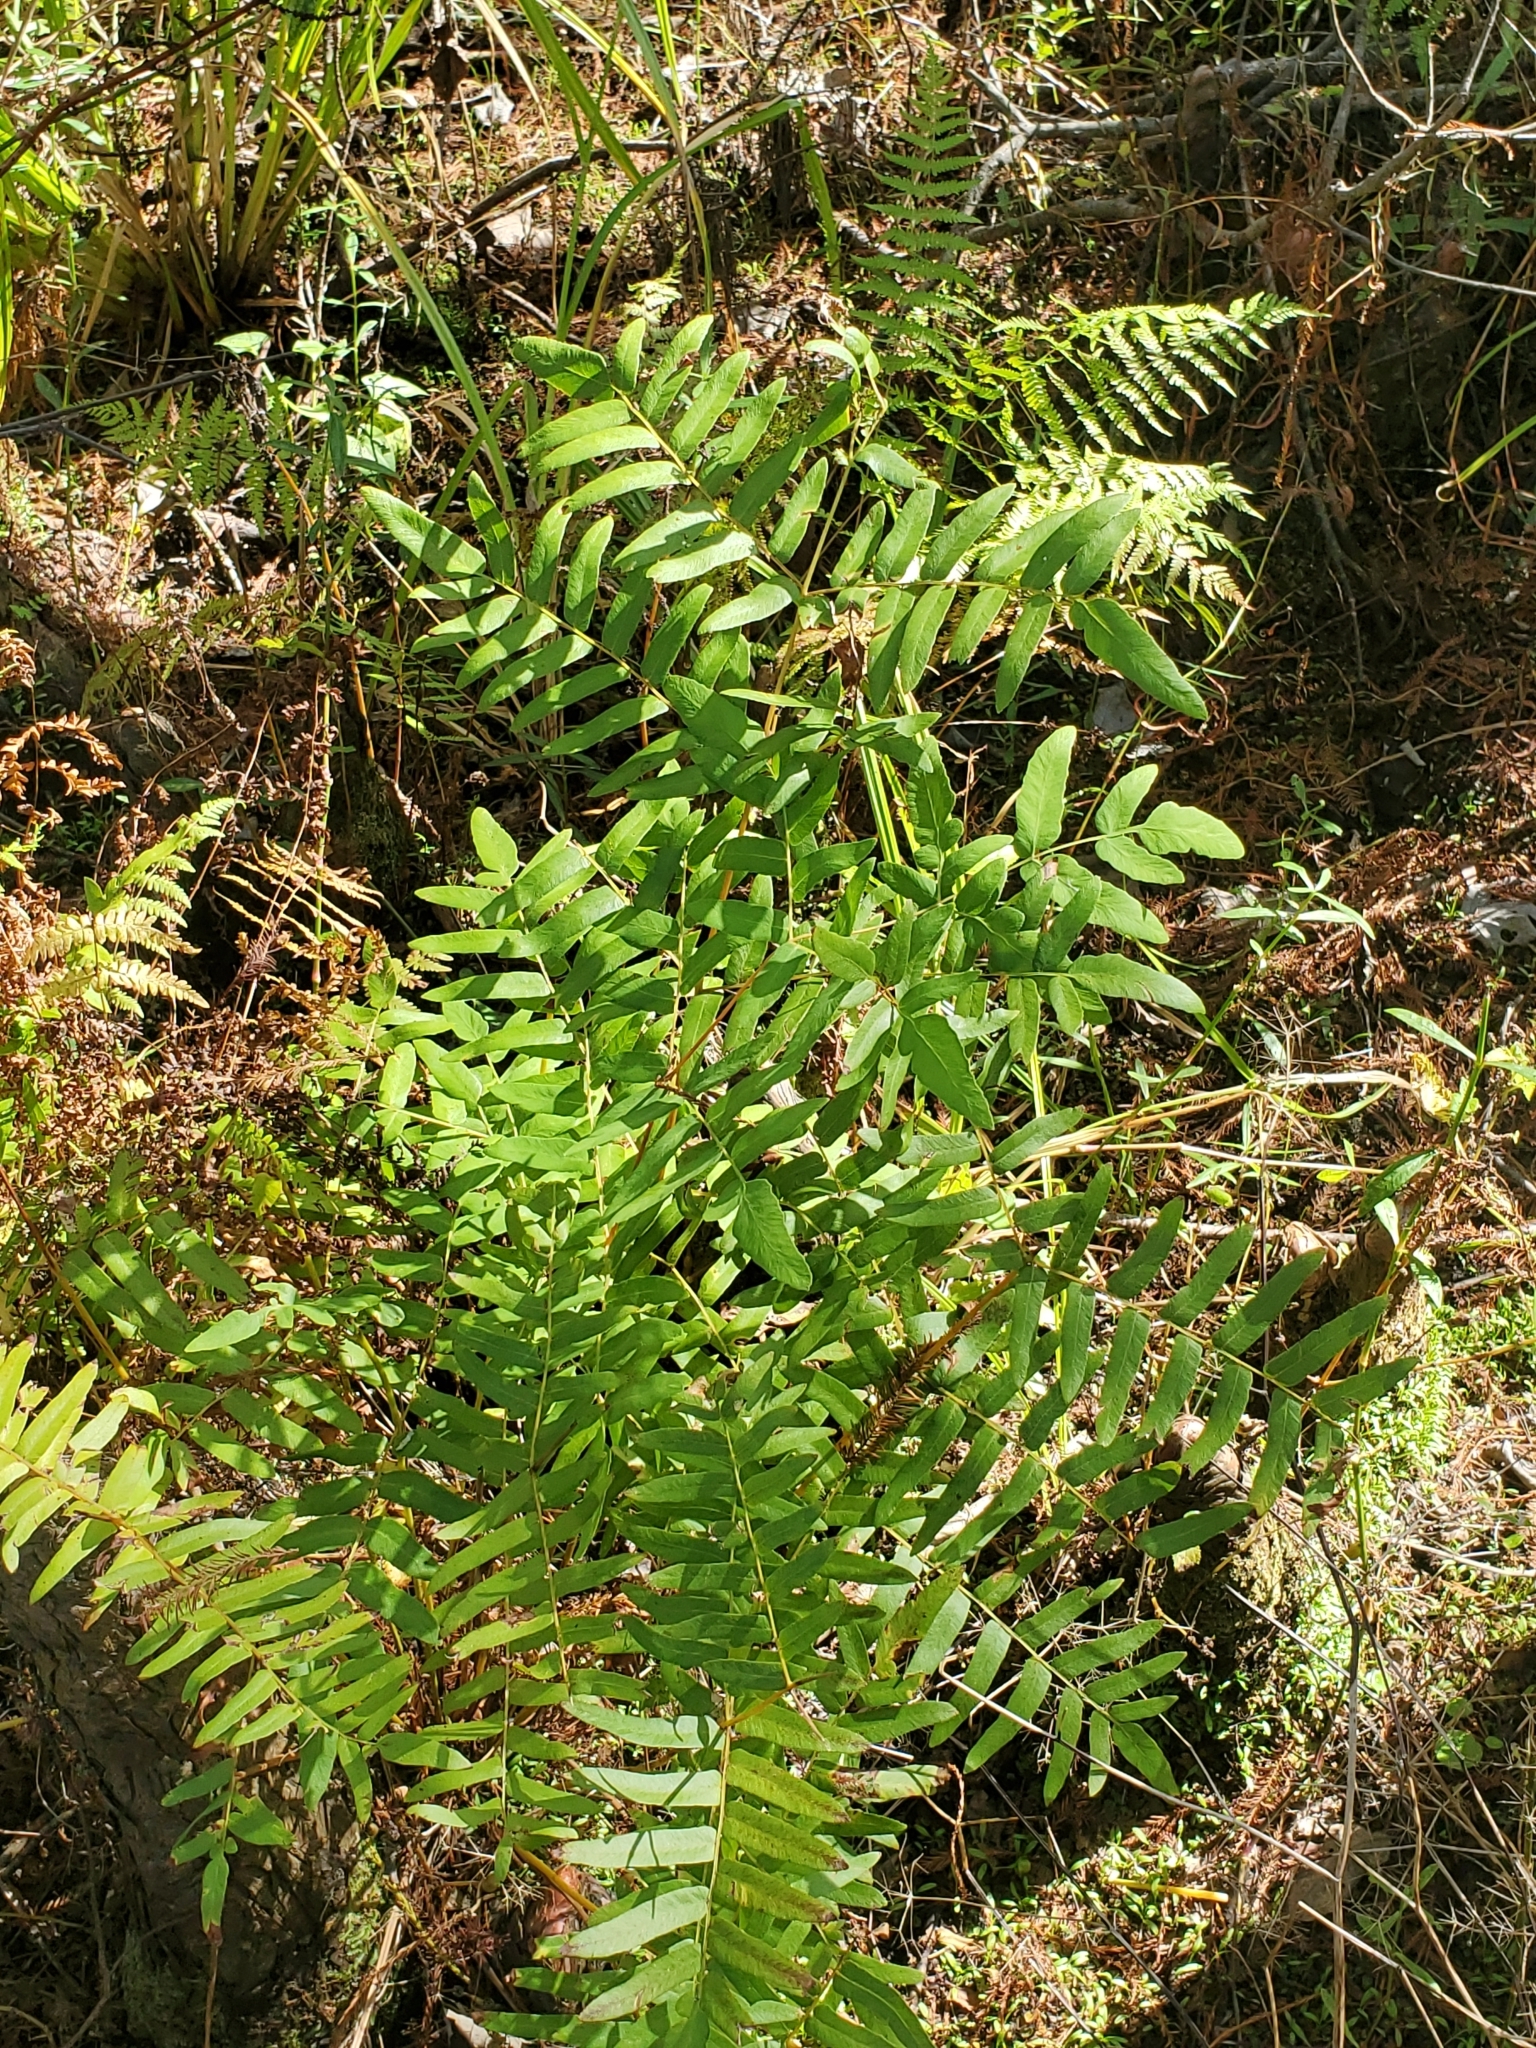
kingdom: Plantae
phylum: Tracheophyta
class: Polypodiopsida
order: Osmundales
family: Osmundaceae
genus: Osmunda
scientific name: Osmunda spectabilis
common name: American royal fern
